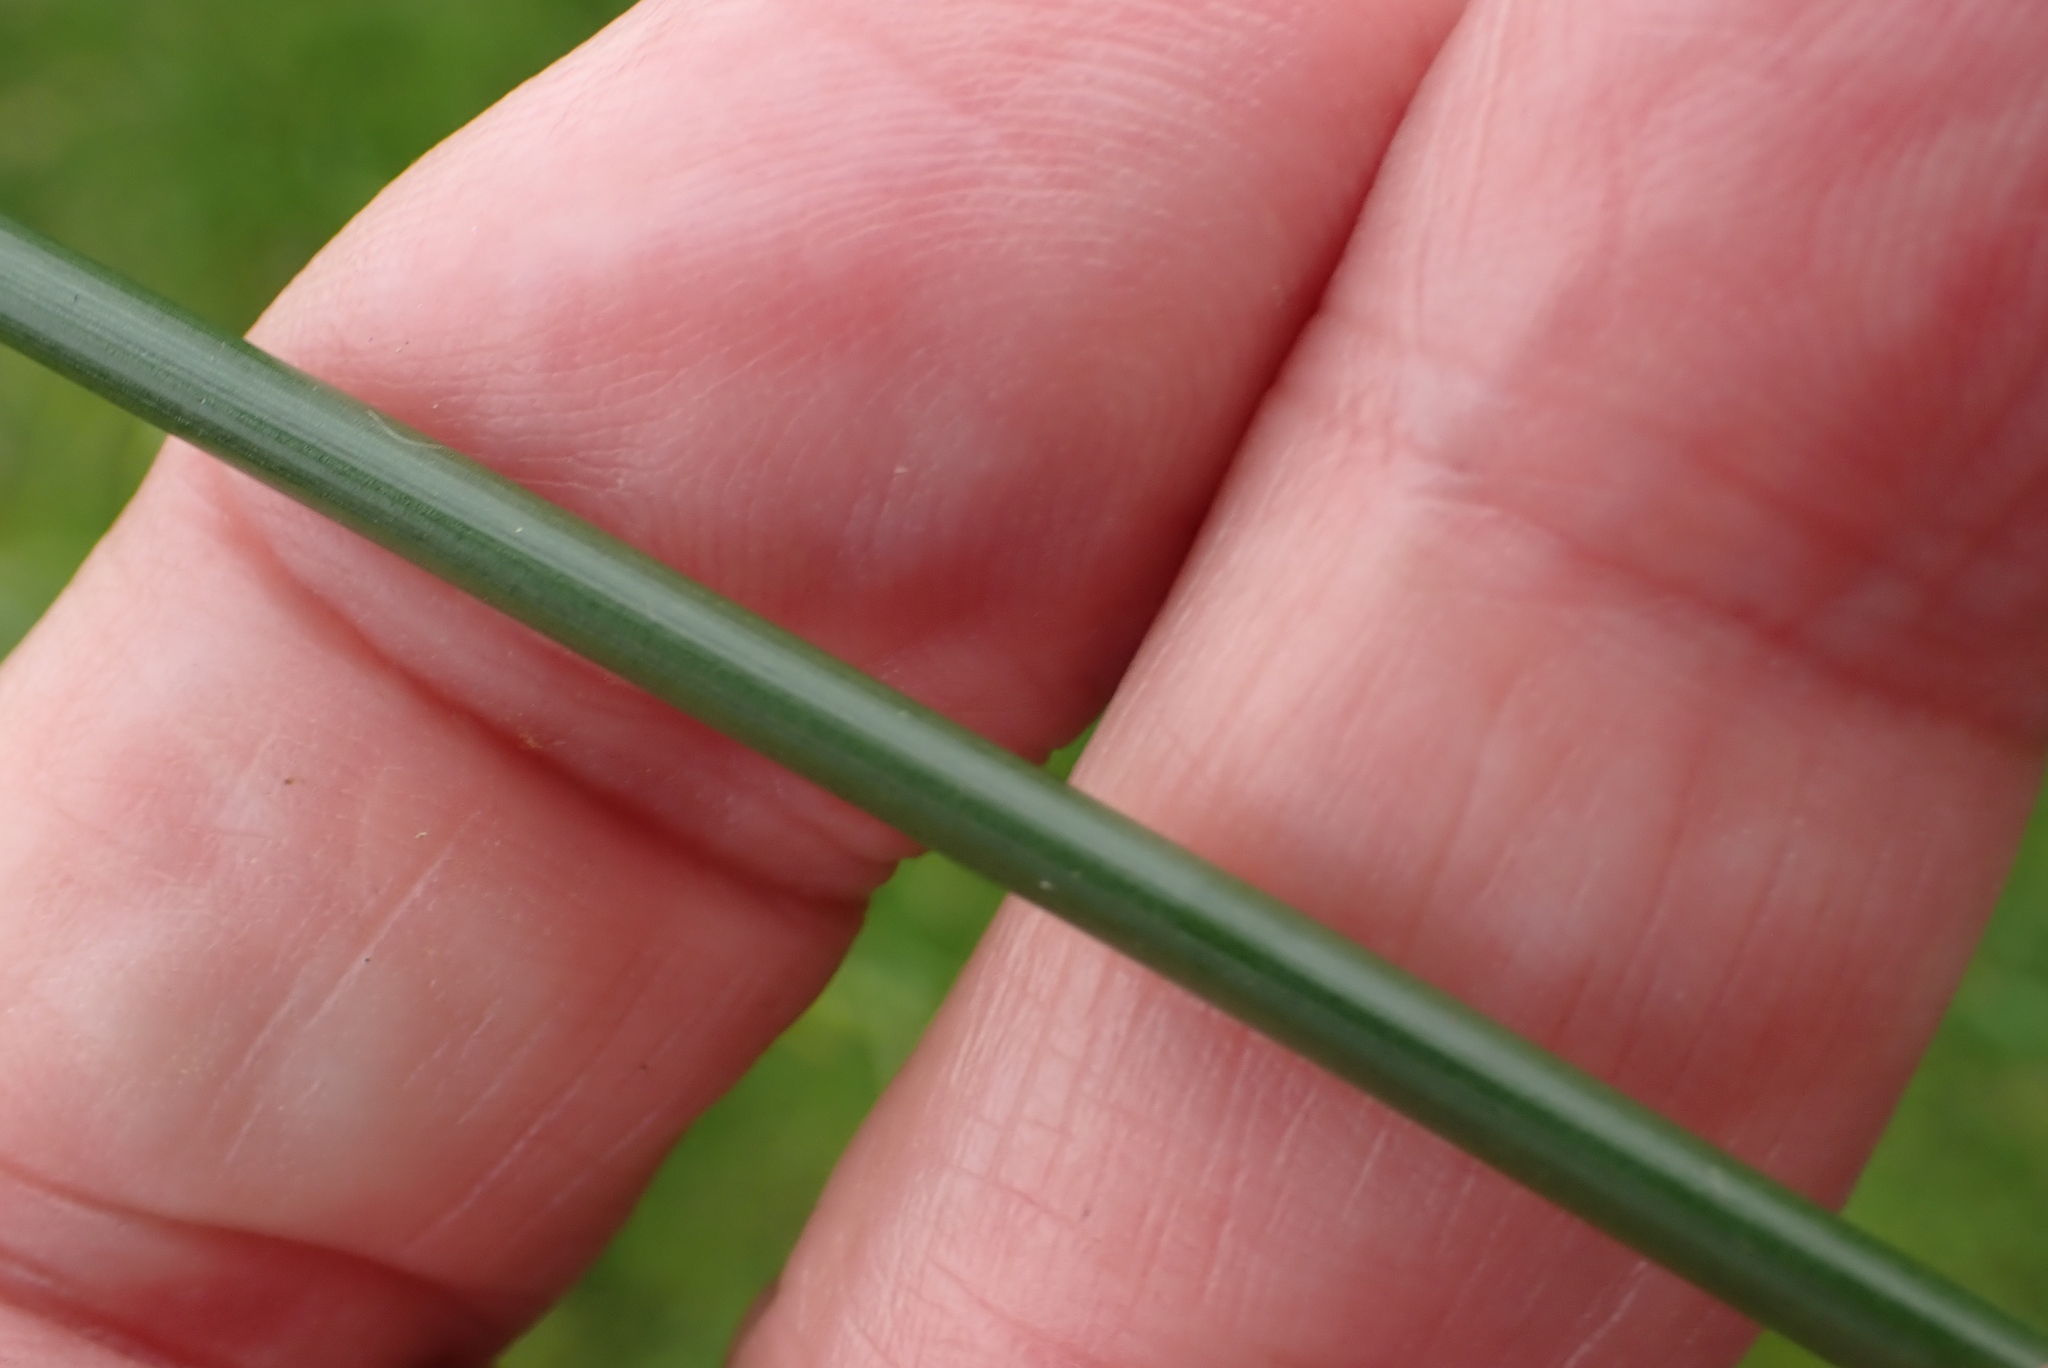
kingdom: Plantae
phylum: Tracheophyta
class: Liliopsida
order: Poales
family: Juncaceae
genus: Juncus
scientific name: Juncus effusus
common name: Soft rush
